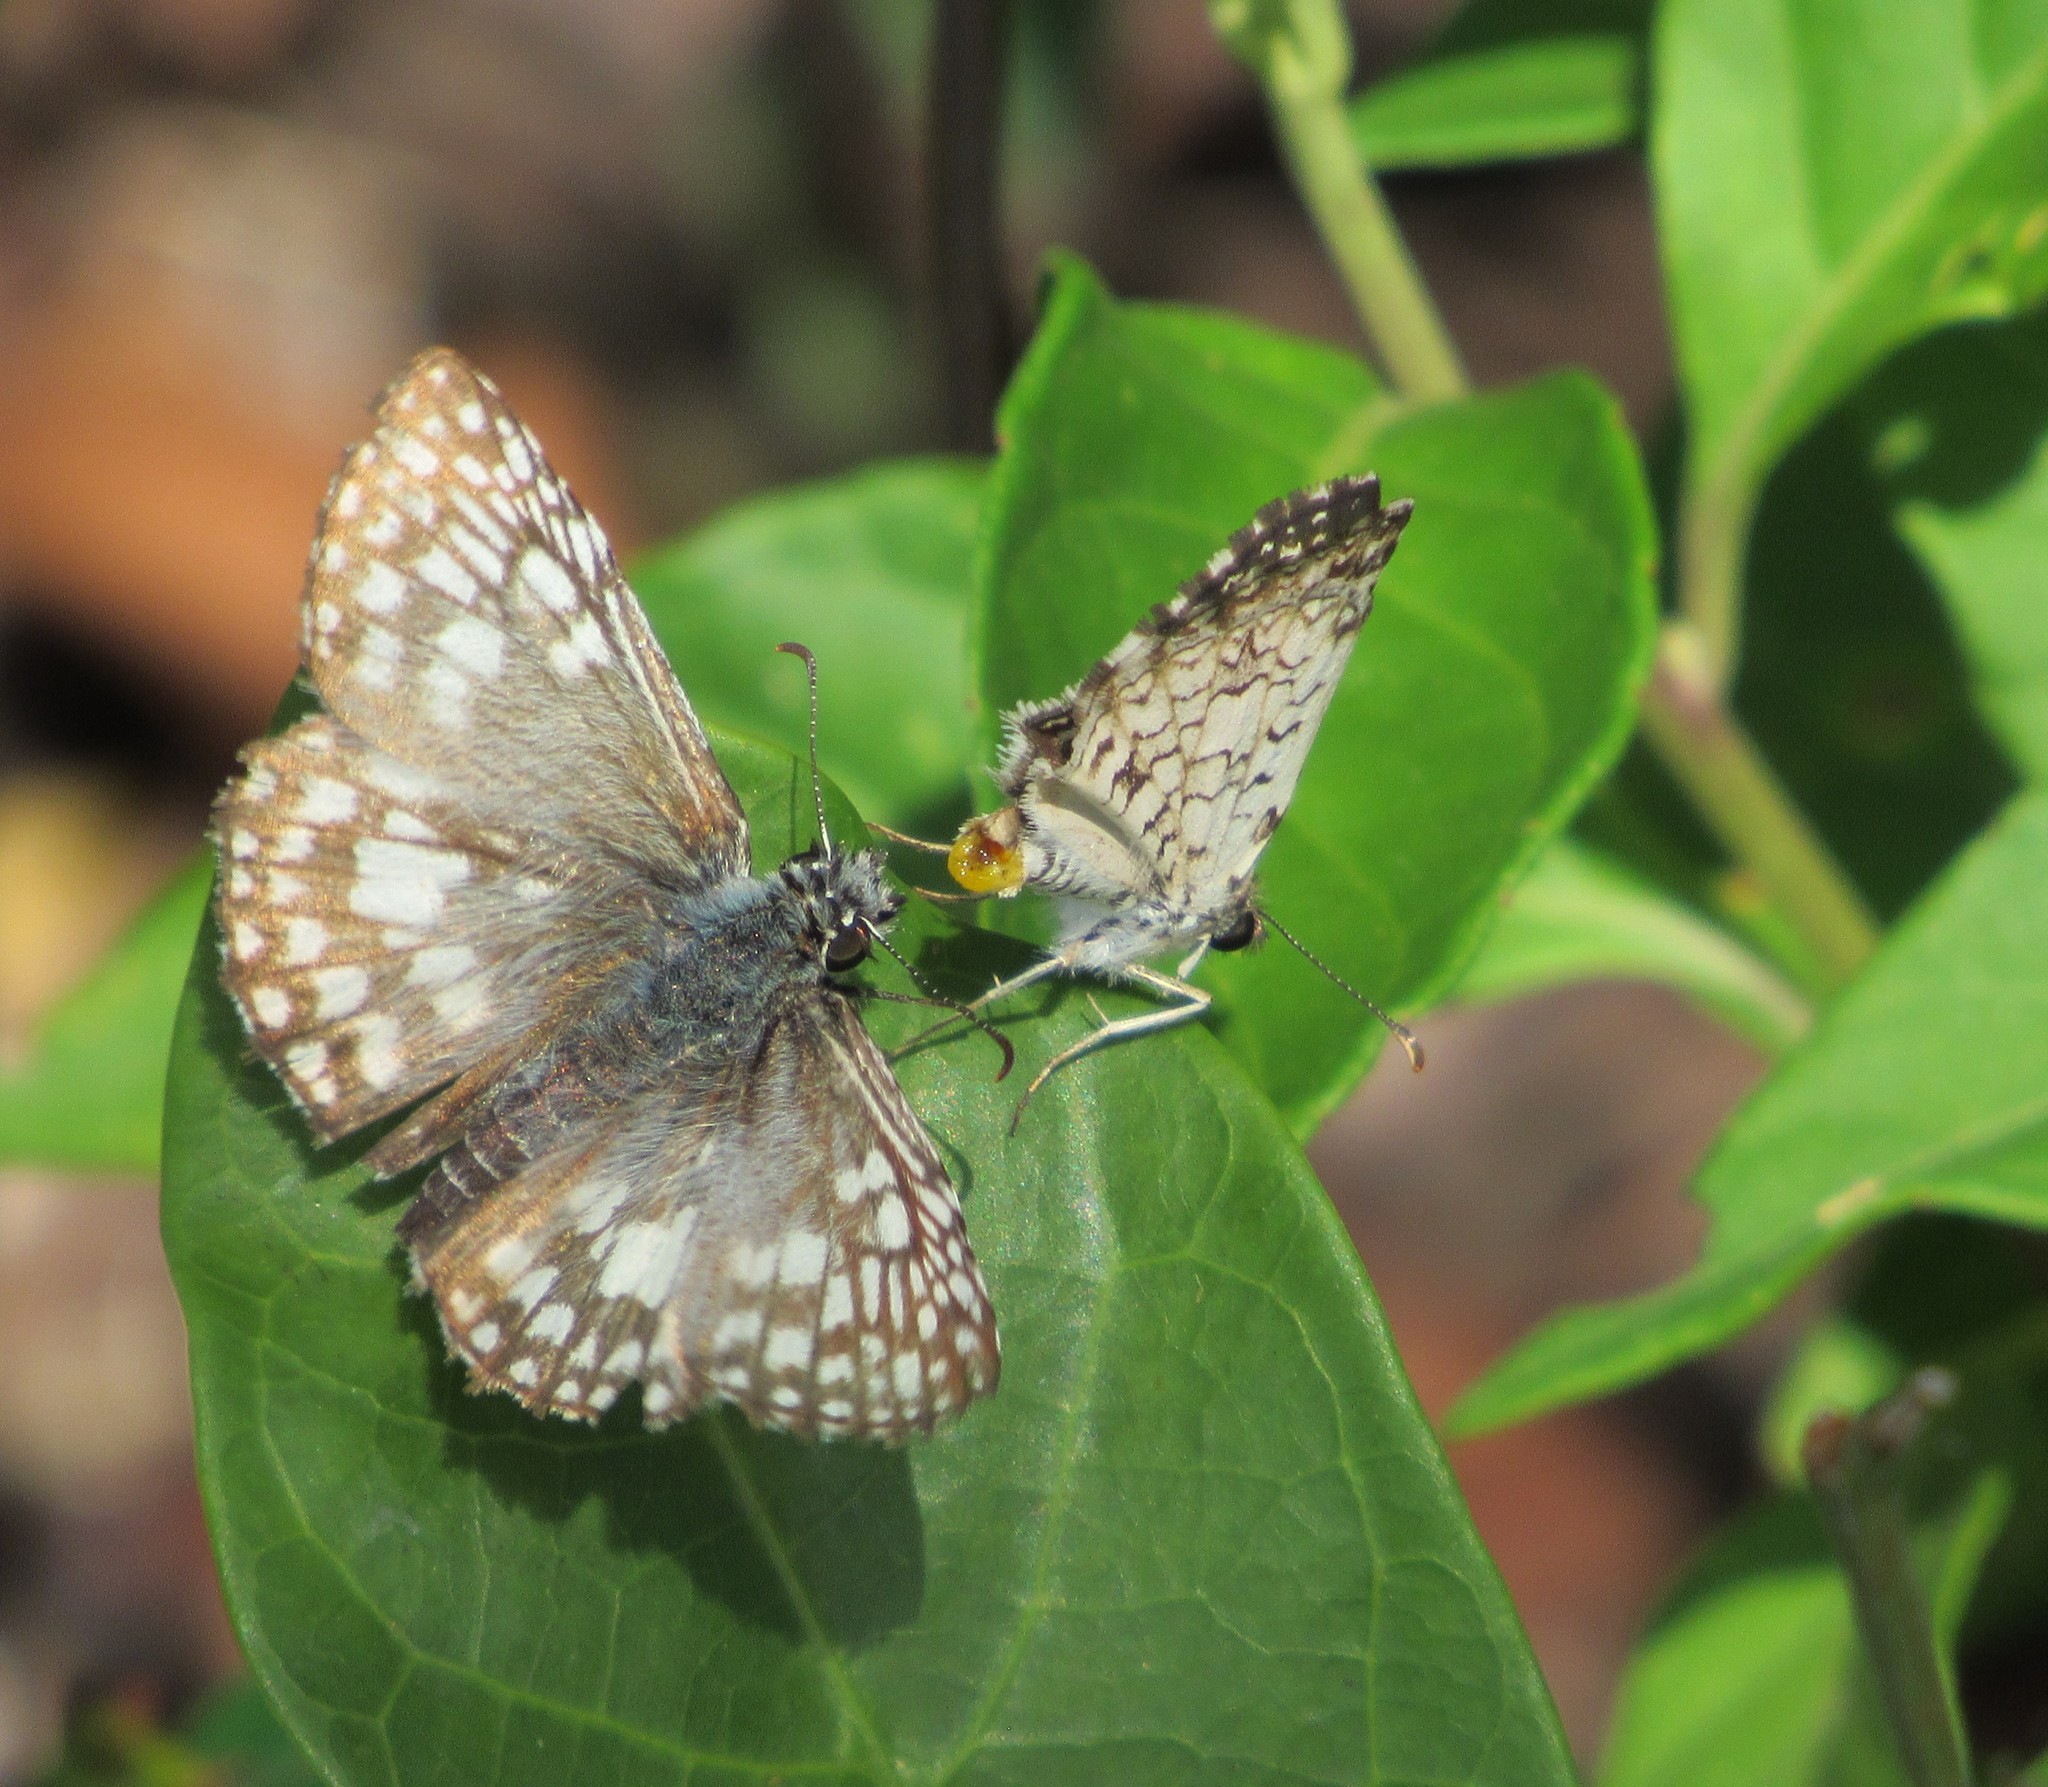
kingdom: Animalia
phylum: Arthropoda
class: Insecta
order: Lepidoptera
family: Hesperiidae
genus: Pyrgus
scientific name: Pyrgus oileus
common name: Tropical checkered-skipper
